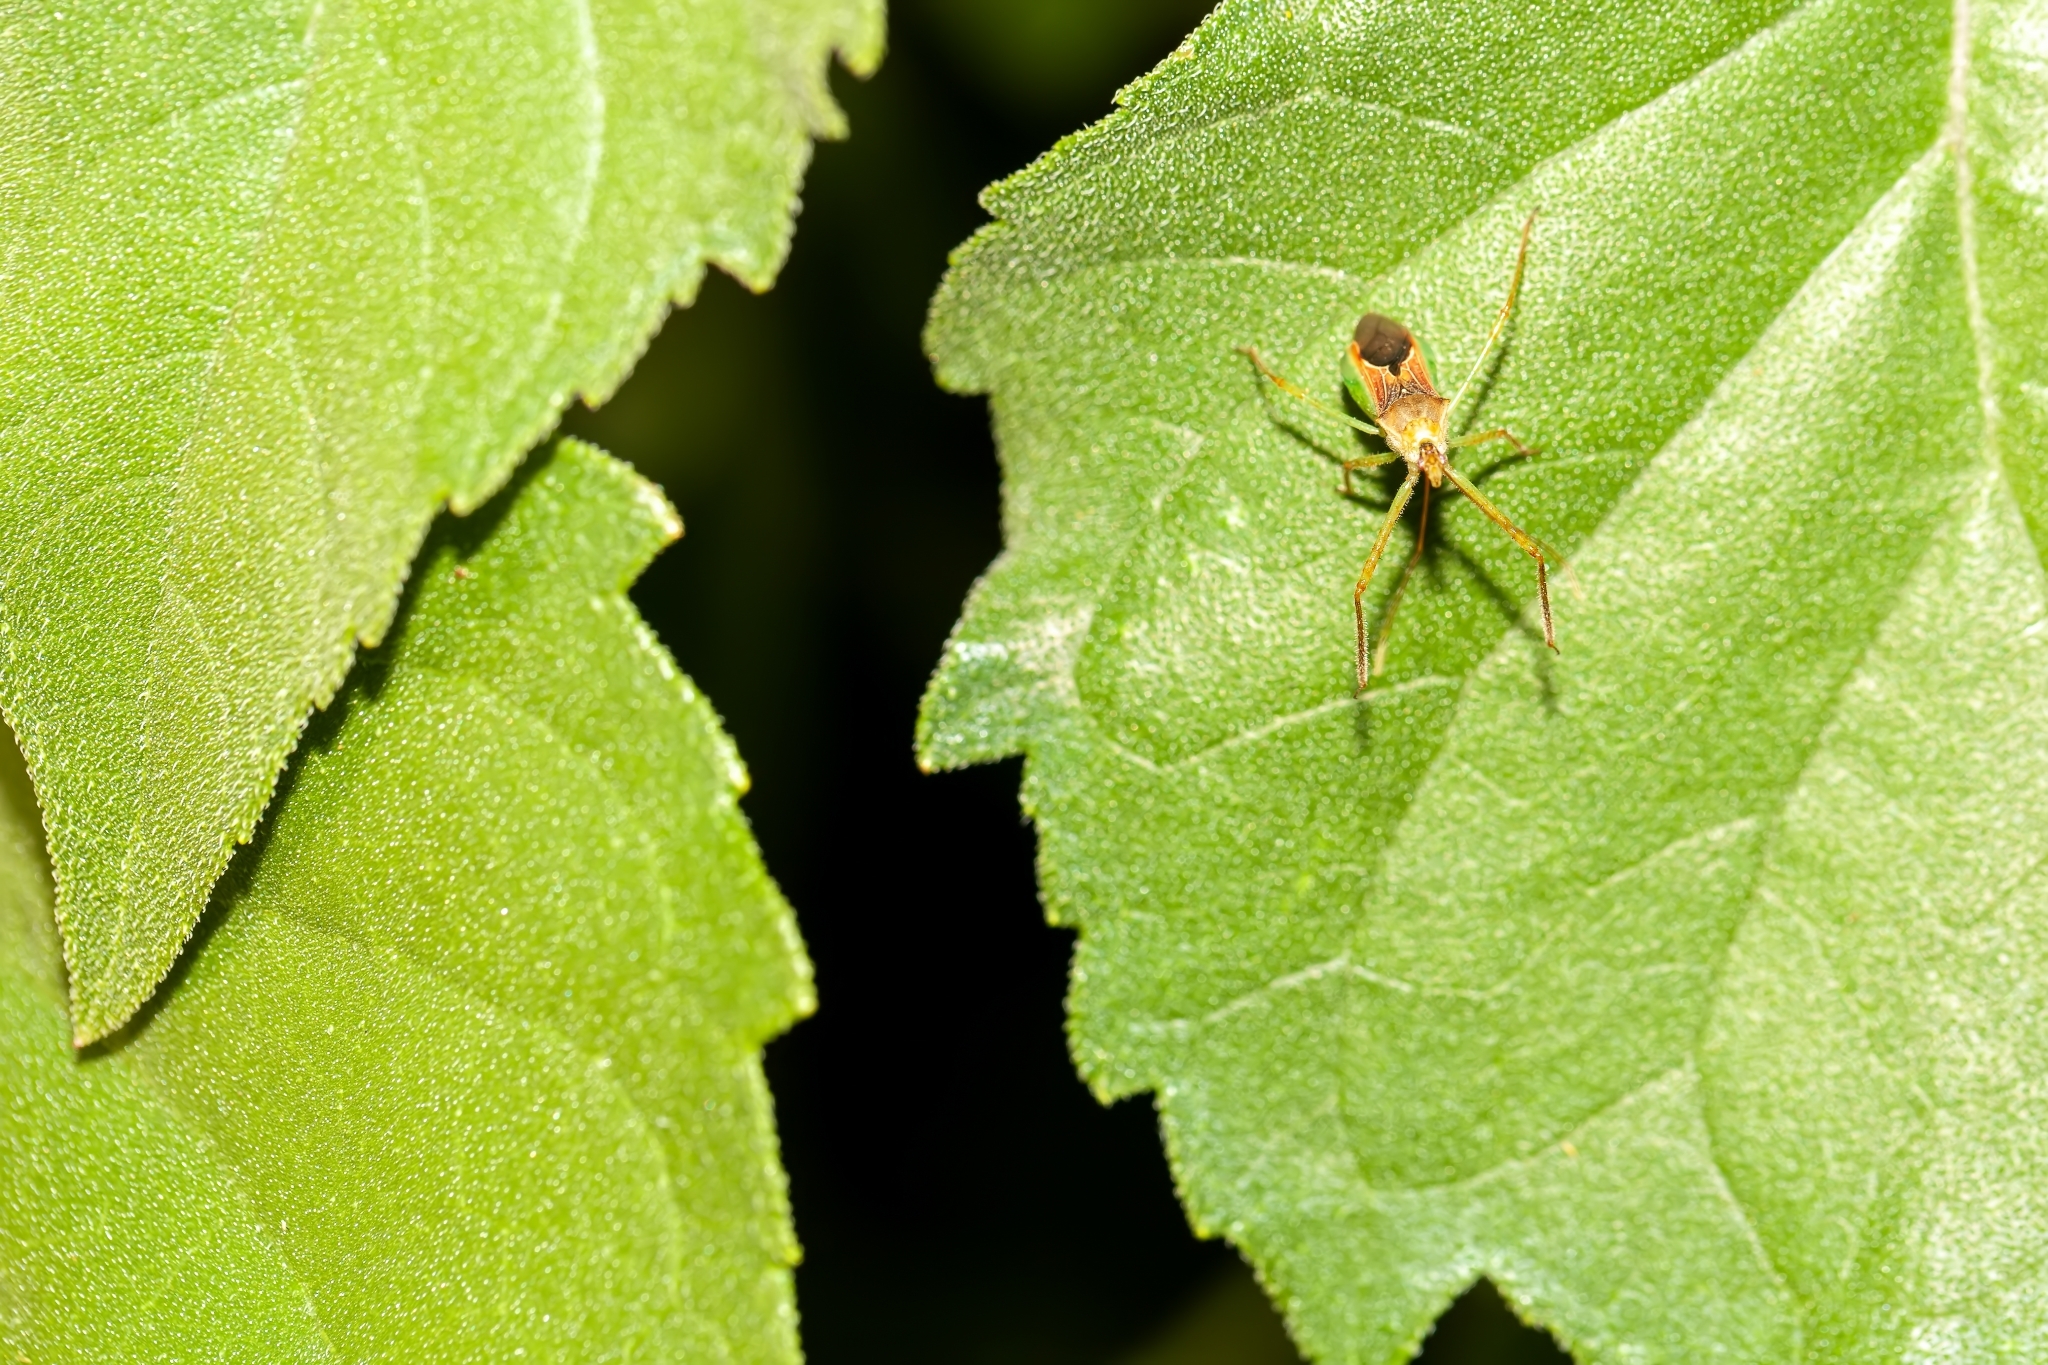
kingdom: Animalia
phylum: Arthropoda
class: Insecta
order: Hemiptera
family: Reduviidae
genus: Zelus
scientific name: Zelus renardii
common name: Assassin bug
